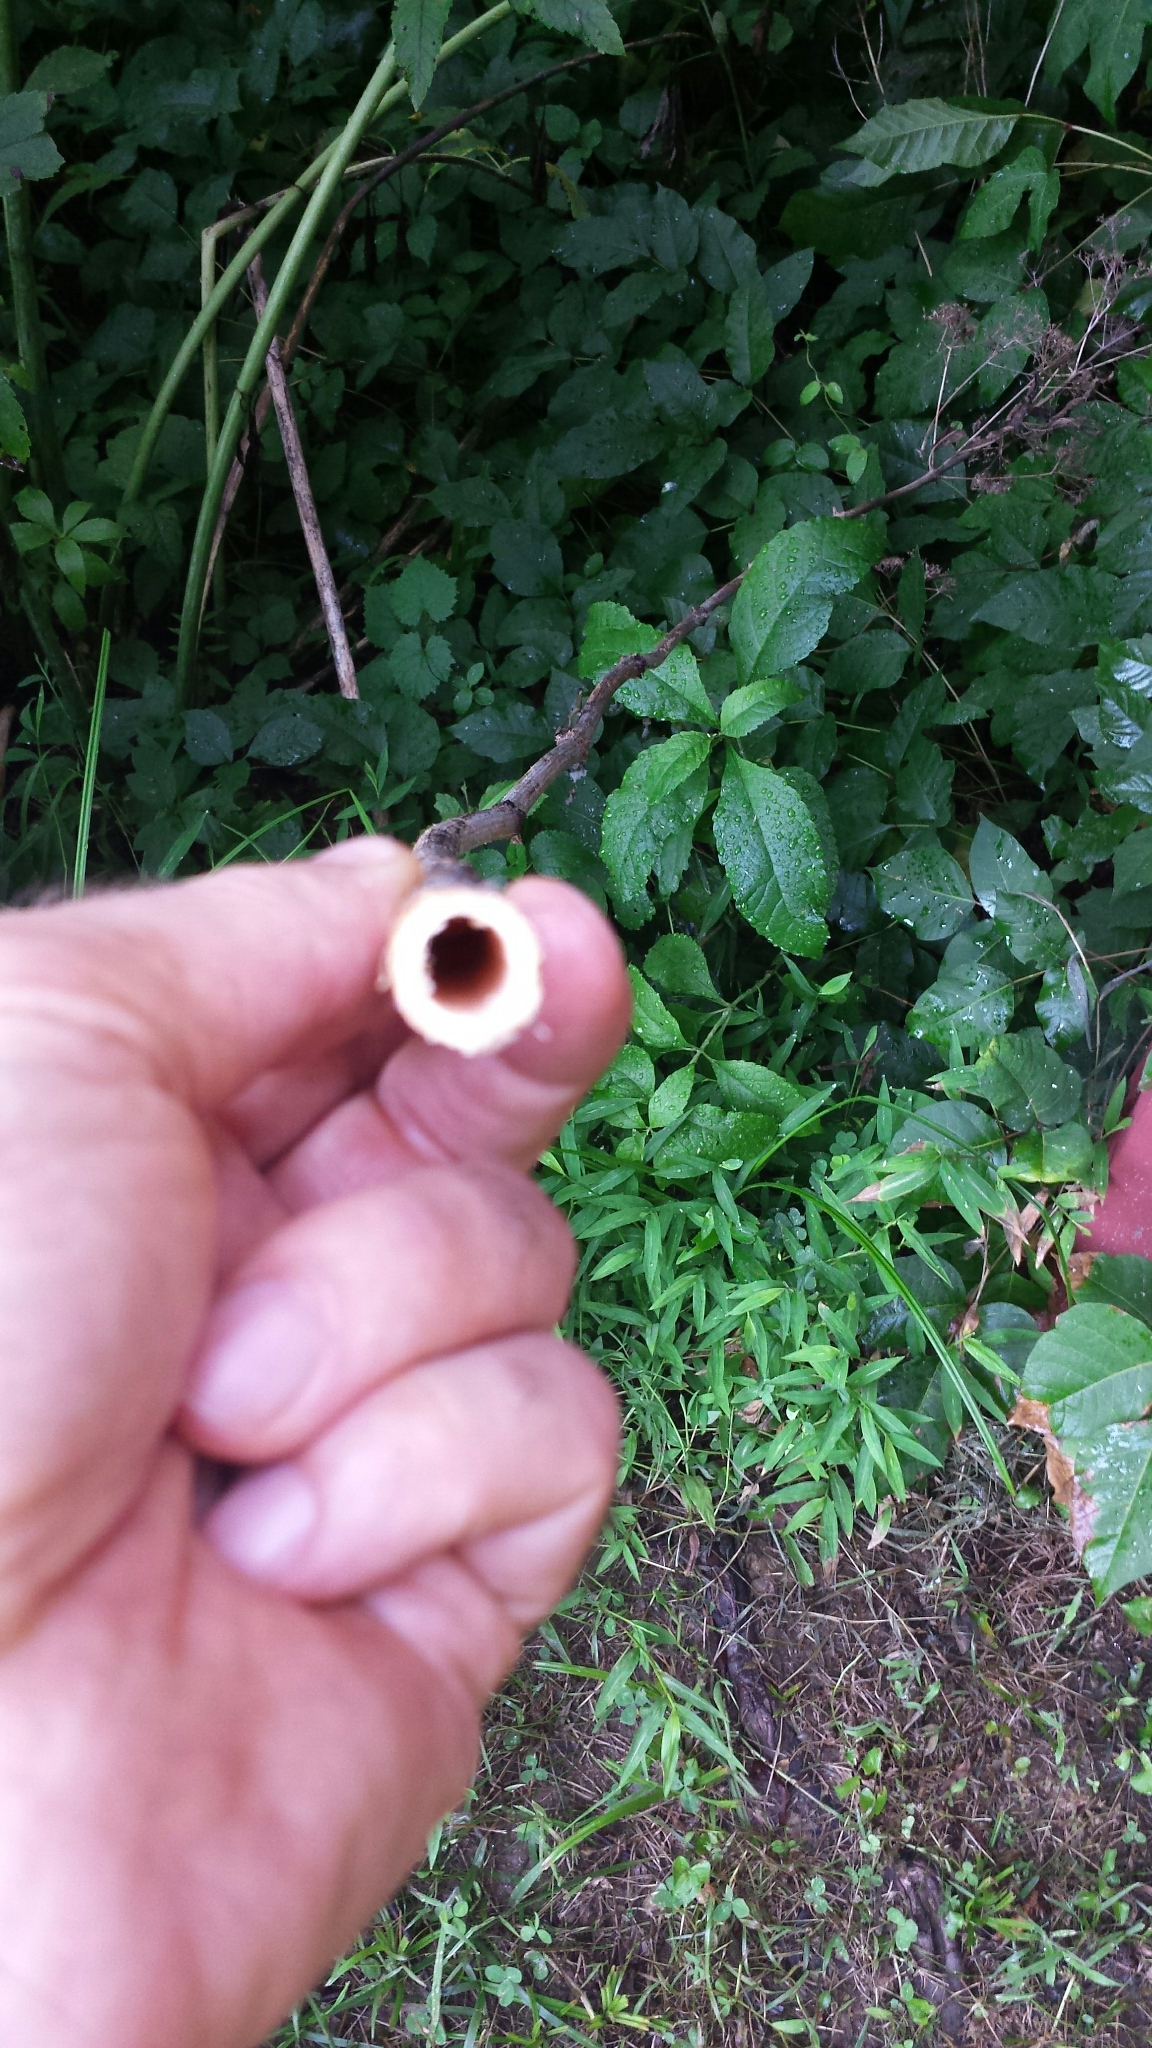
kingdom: Plantae
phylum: Tracheophyta
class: Magnoliopsida
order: Asterales
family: Asteraceae
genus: Eutrochium
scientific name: Eutrochium fistulosum
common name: Trumpetweed
